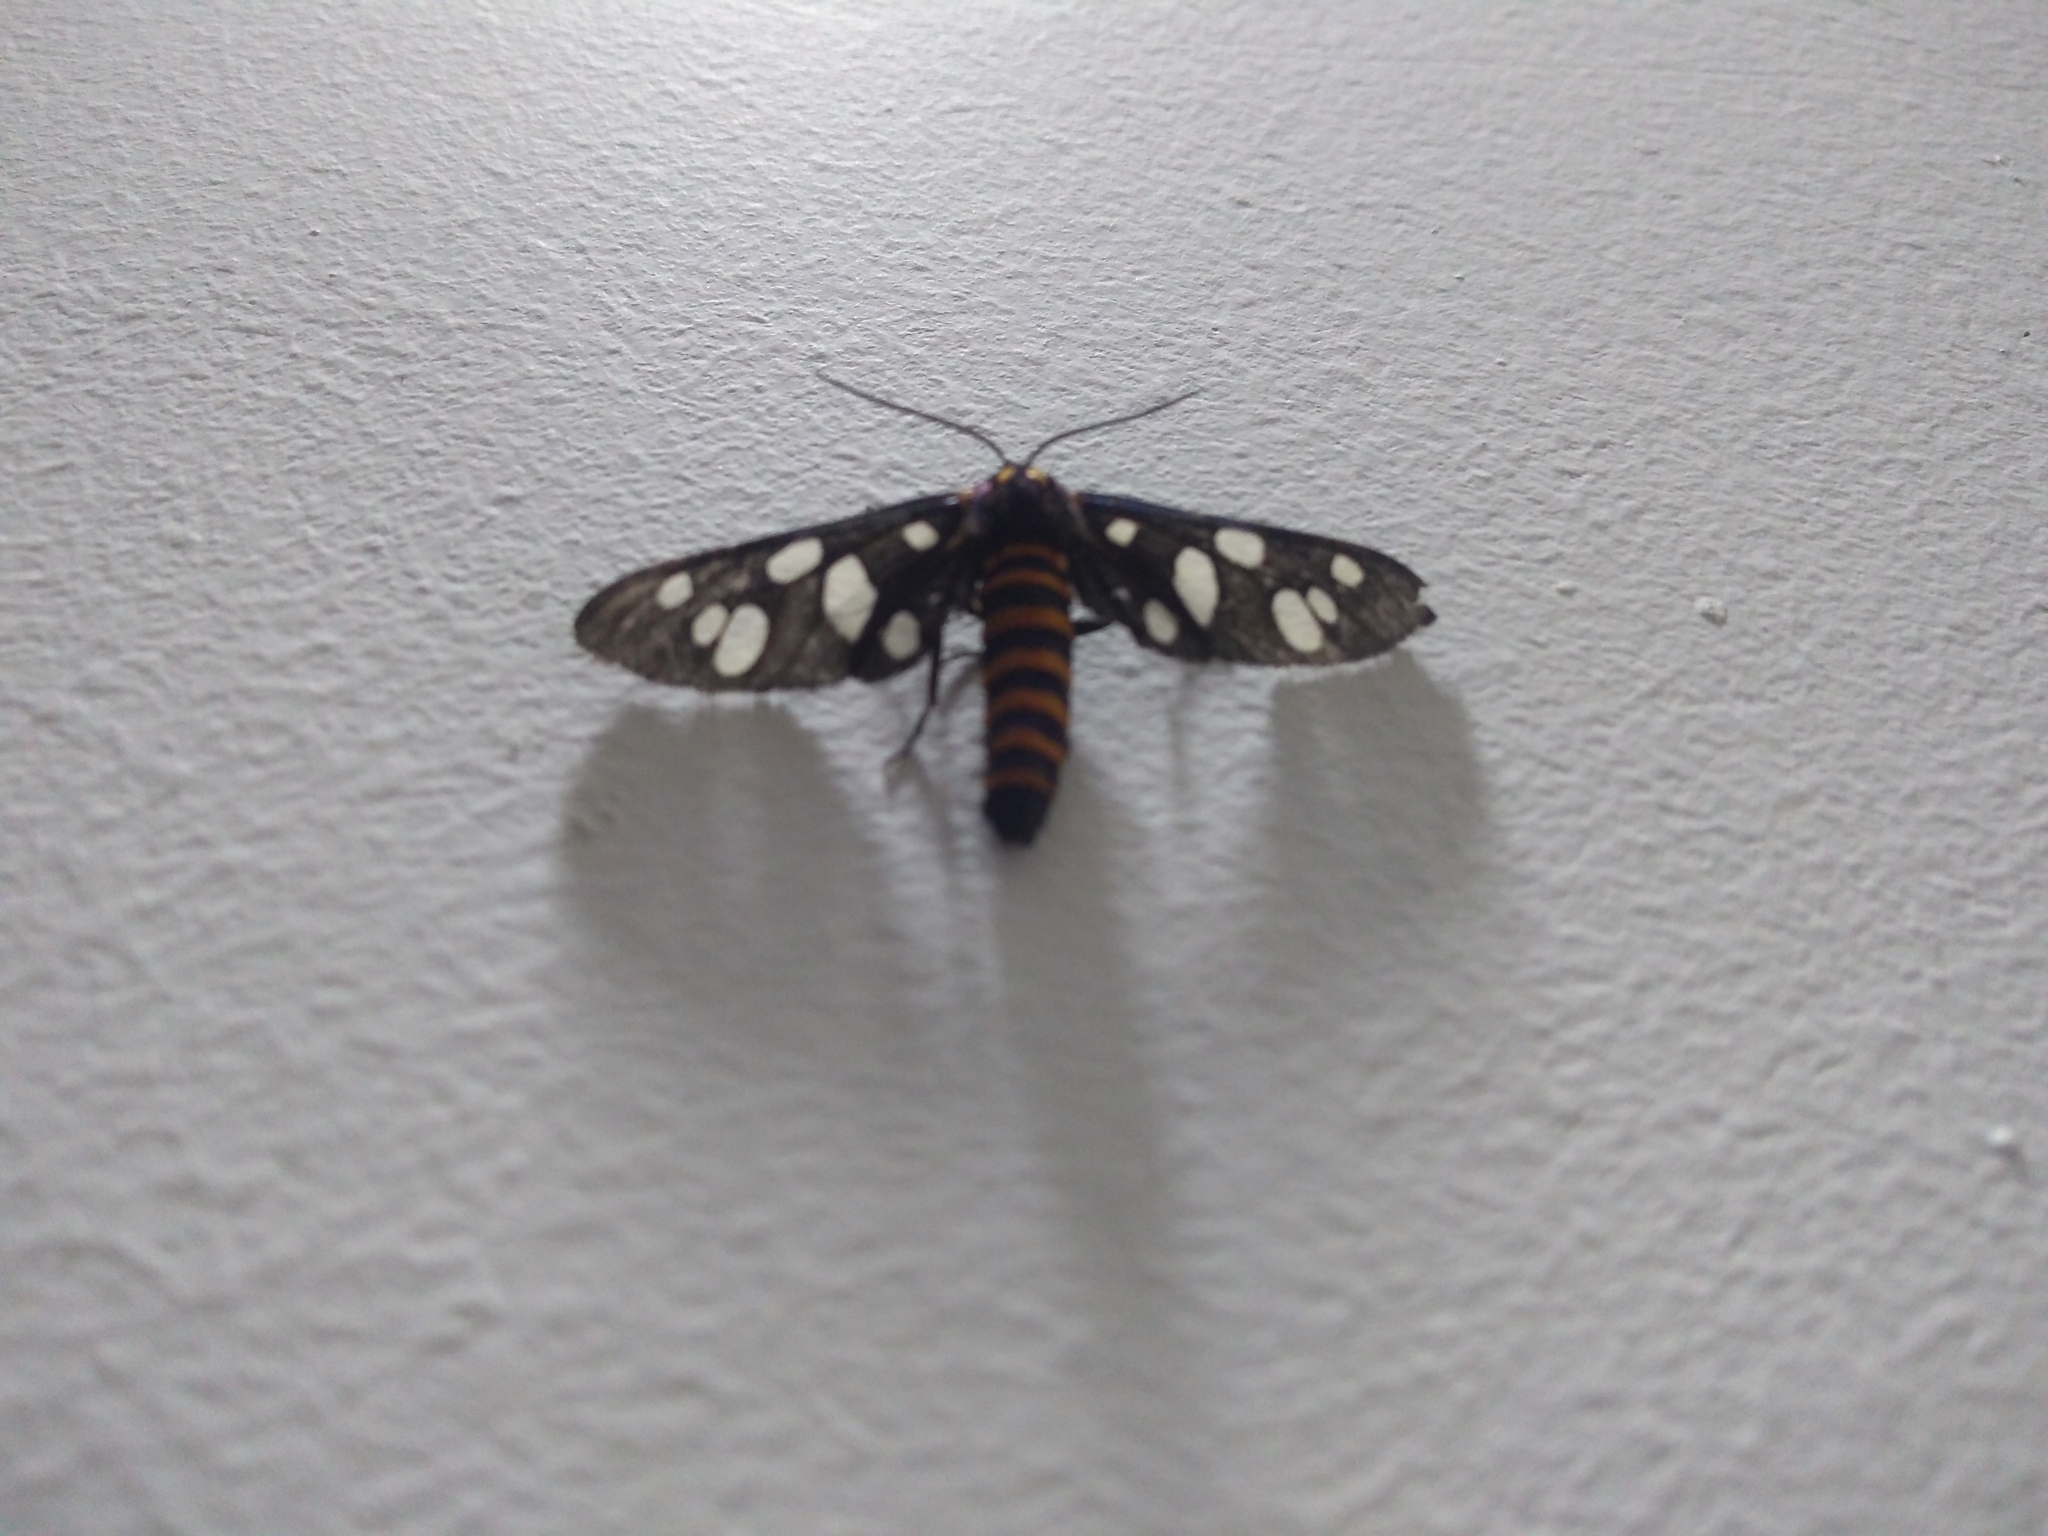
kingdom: Animalia
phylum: Arthropoda
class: Insecta
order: Lepidoptera
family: Erebidae
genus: Amata
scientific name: Amata passalis
